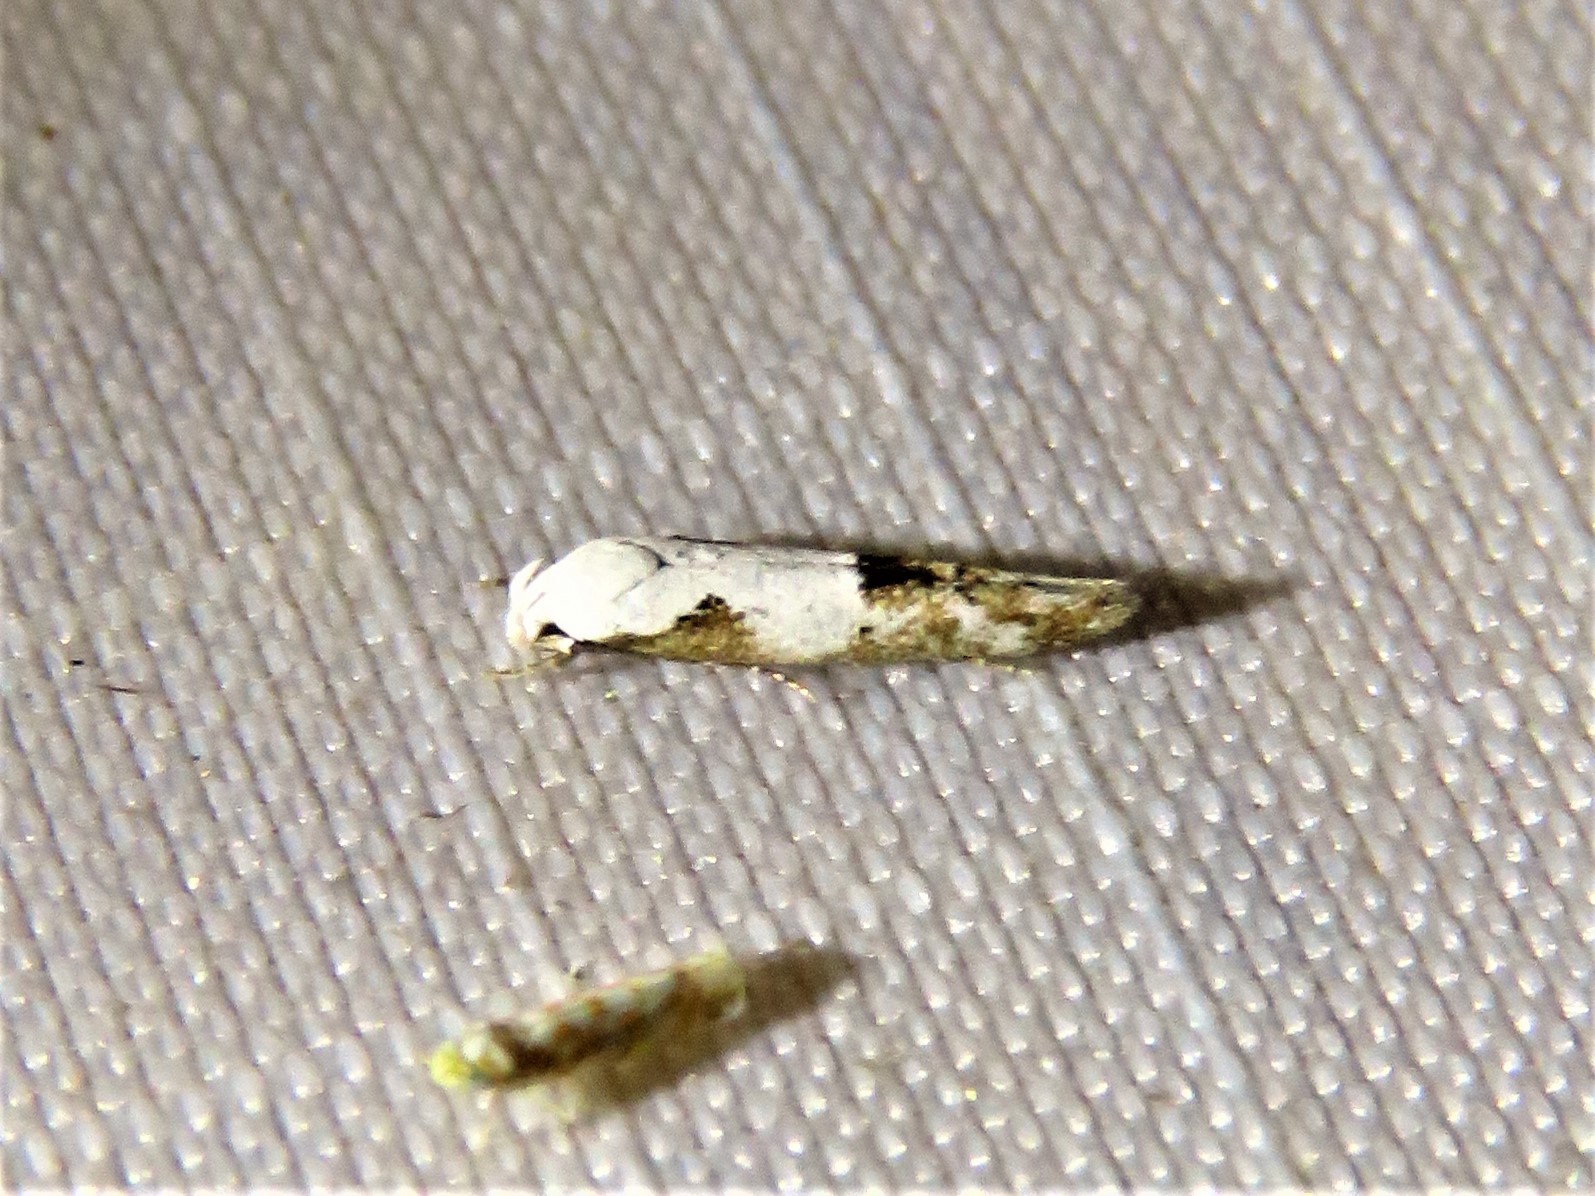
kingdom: Animalia
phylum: Arthropoda
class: Insecta
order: Lepidoptera
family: Momphidae
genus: Mompha
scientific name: Mompha circumscriptella
